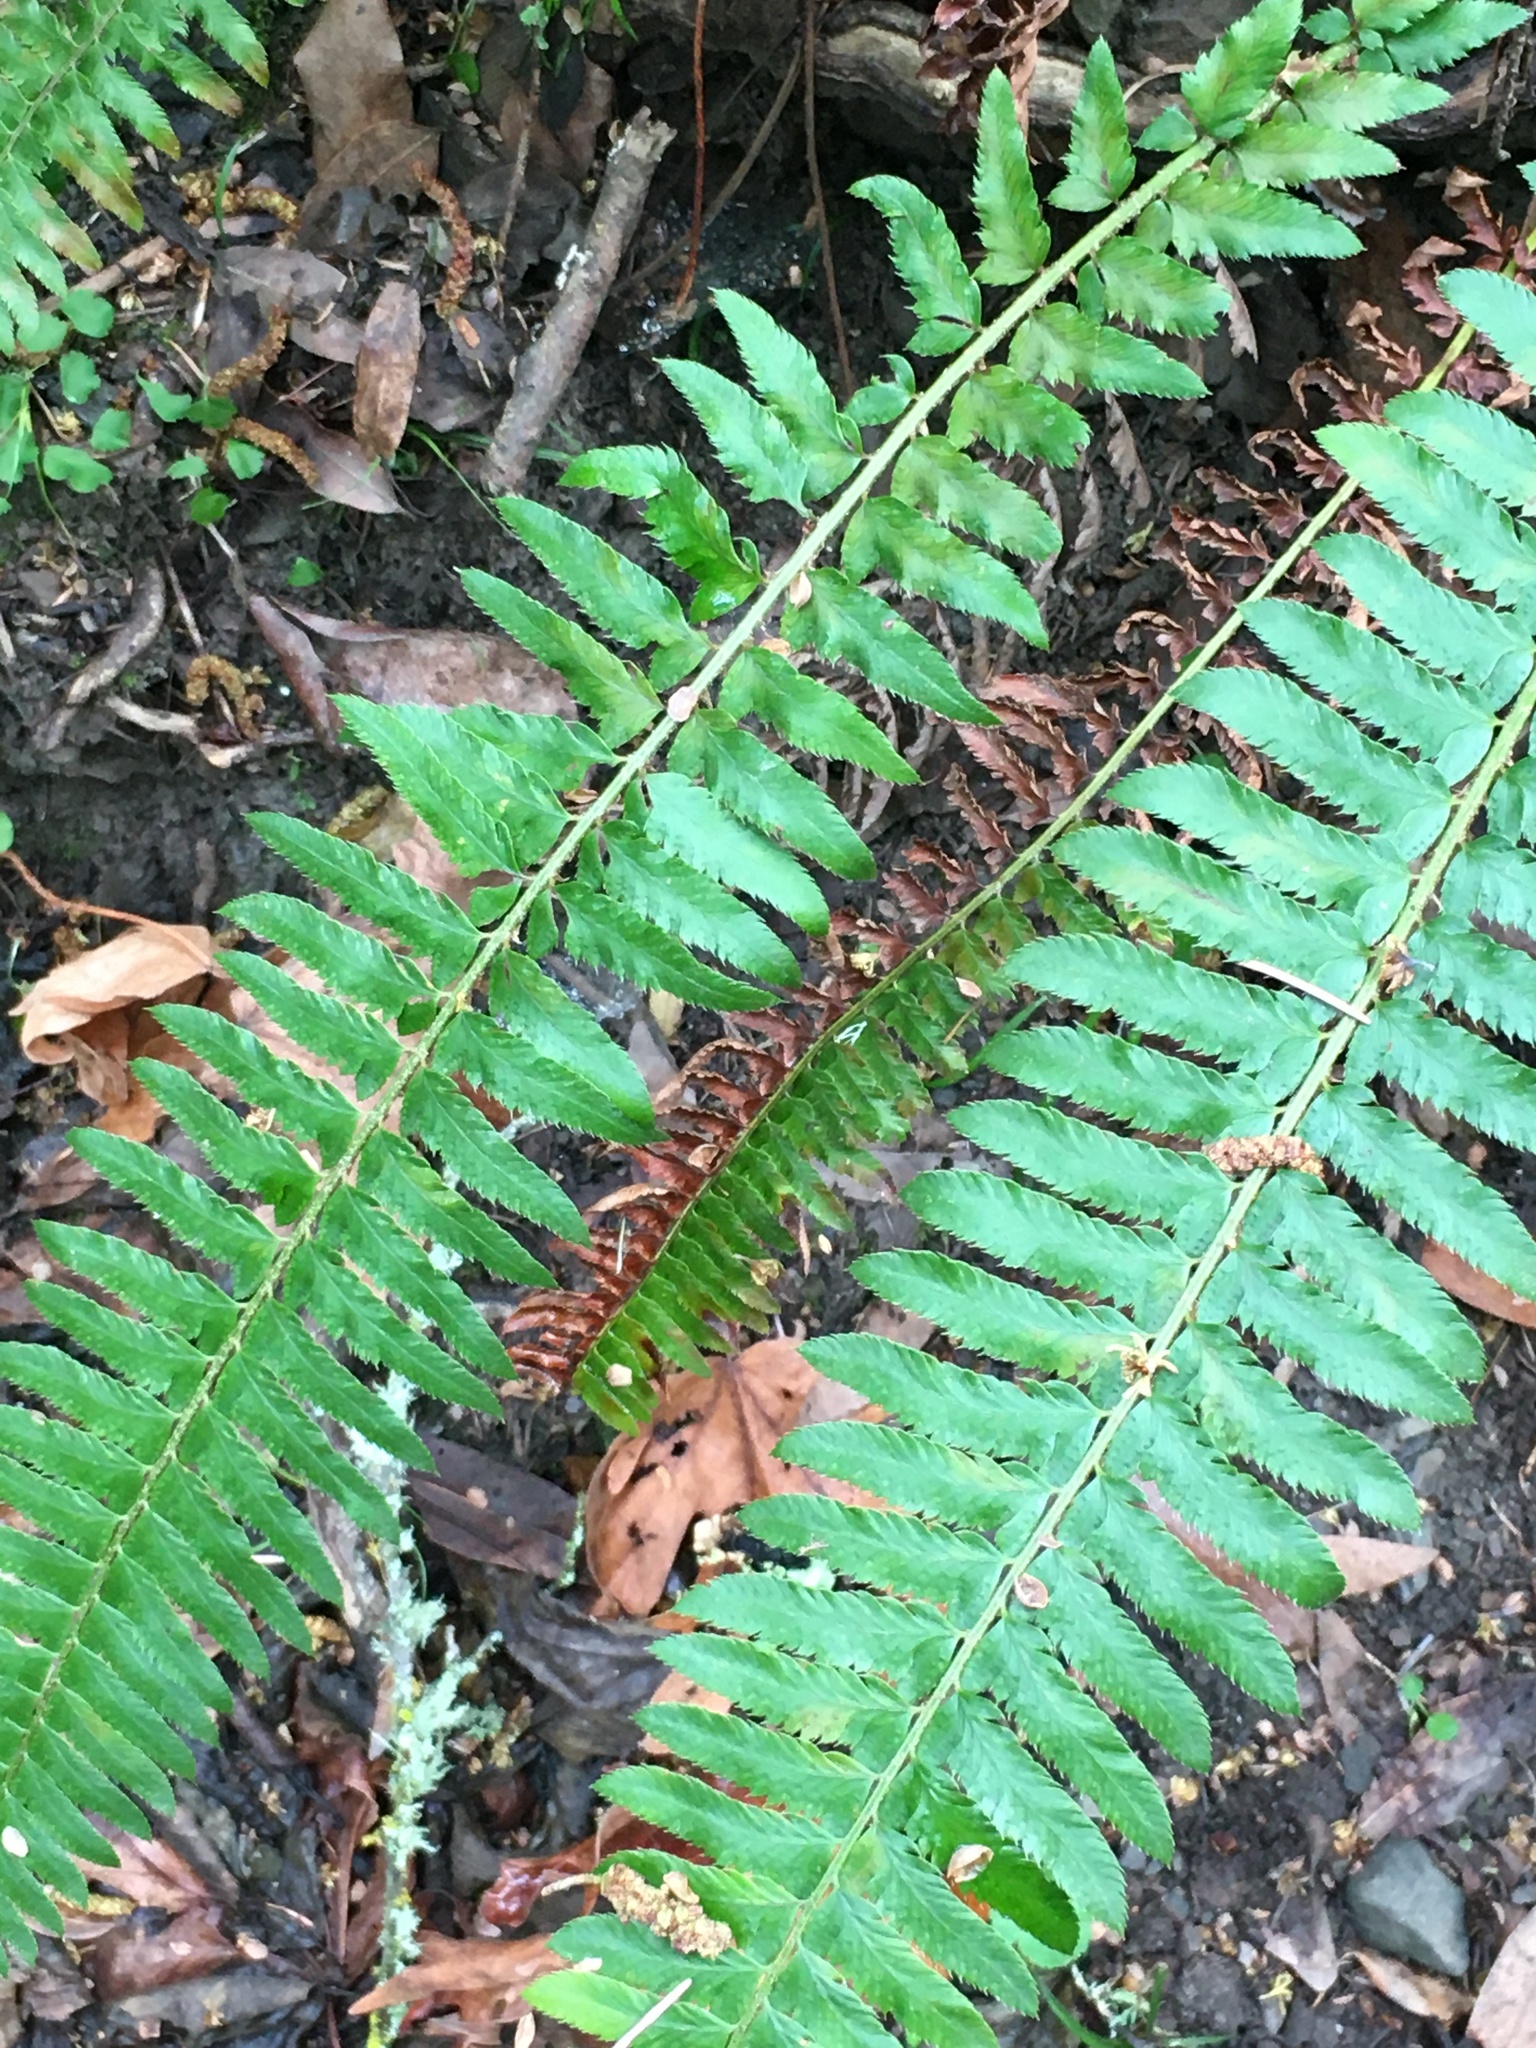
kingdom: Plantae
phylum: Tracheophyta
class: Polypodiopsida
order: Polypodiales
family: Dryopteridaceae
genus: Polystichum
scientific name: Polystichum munitum
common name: Western sword-fern
